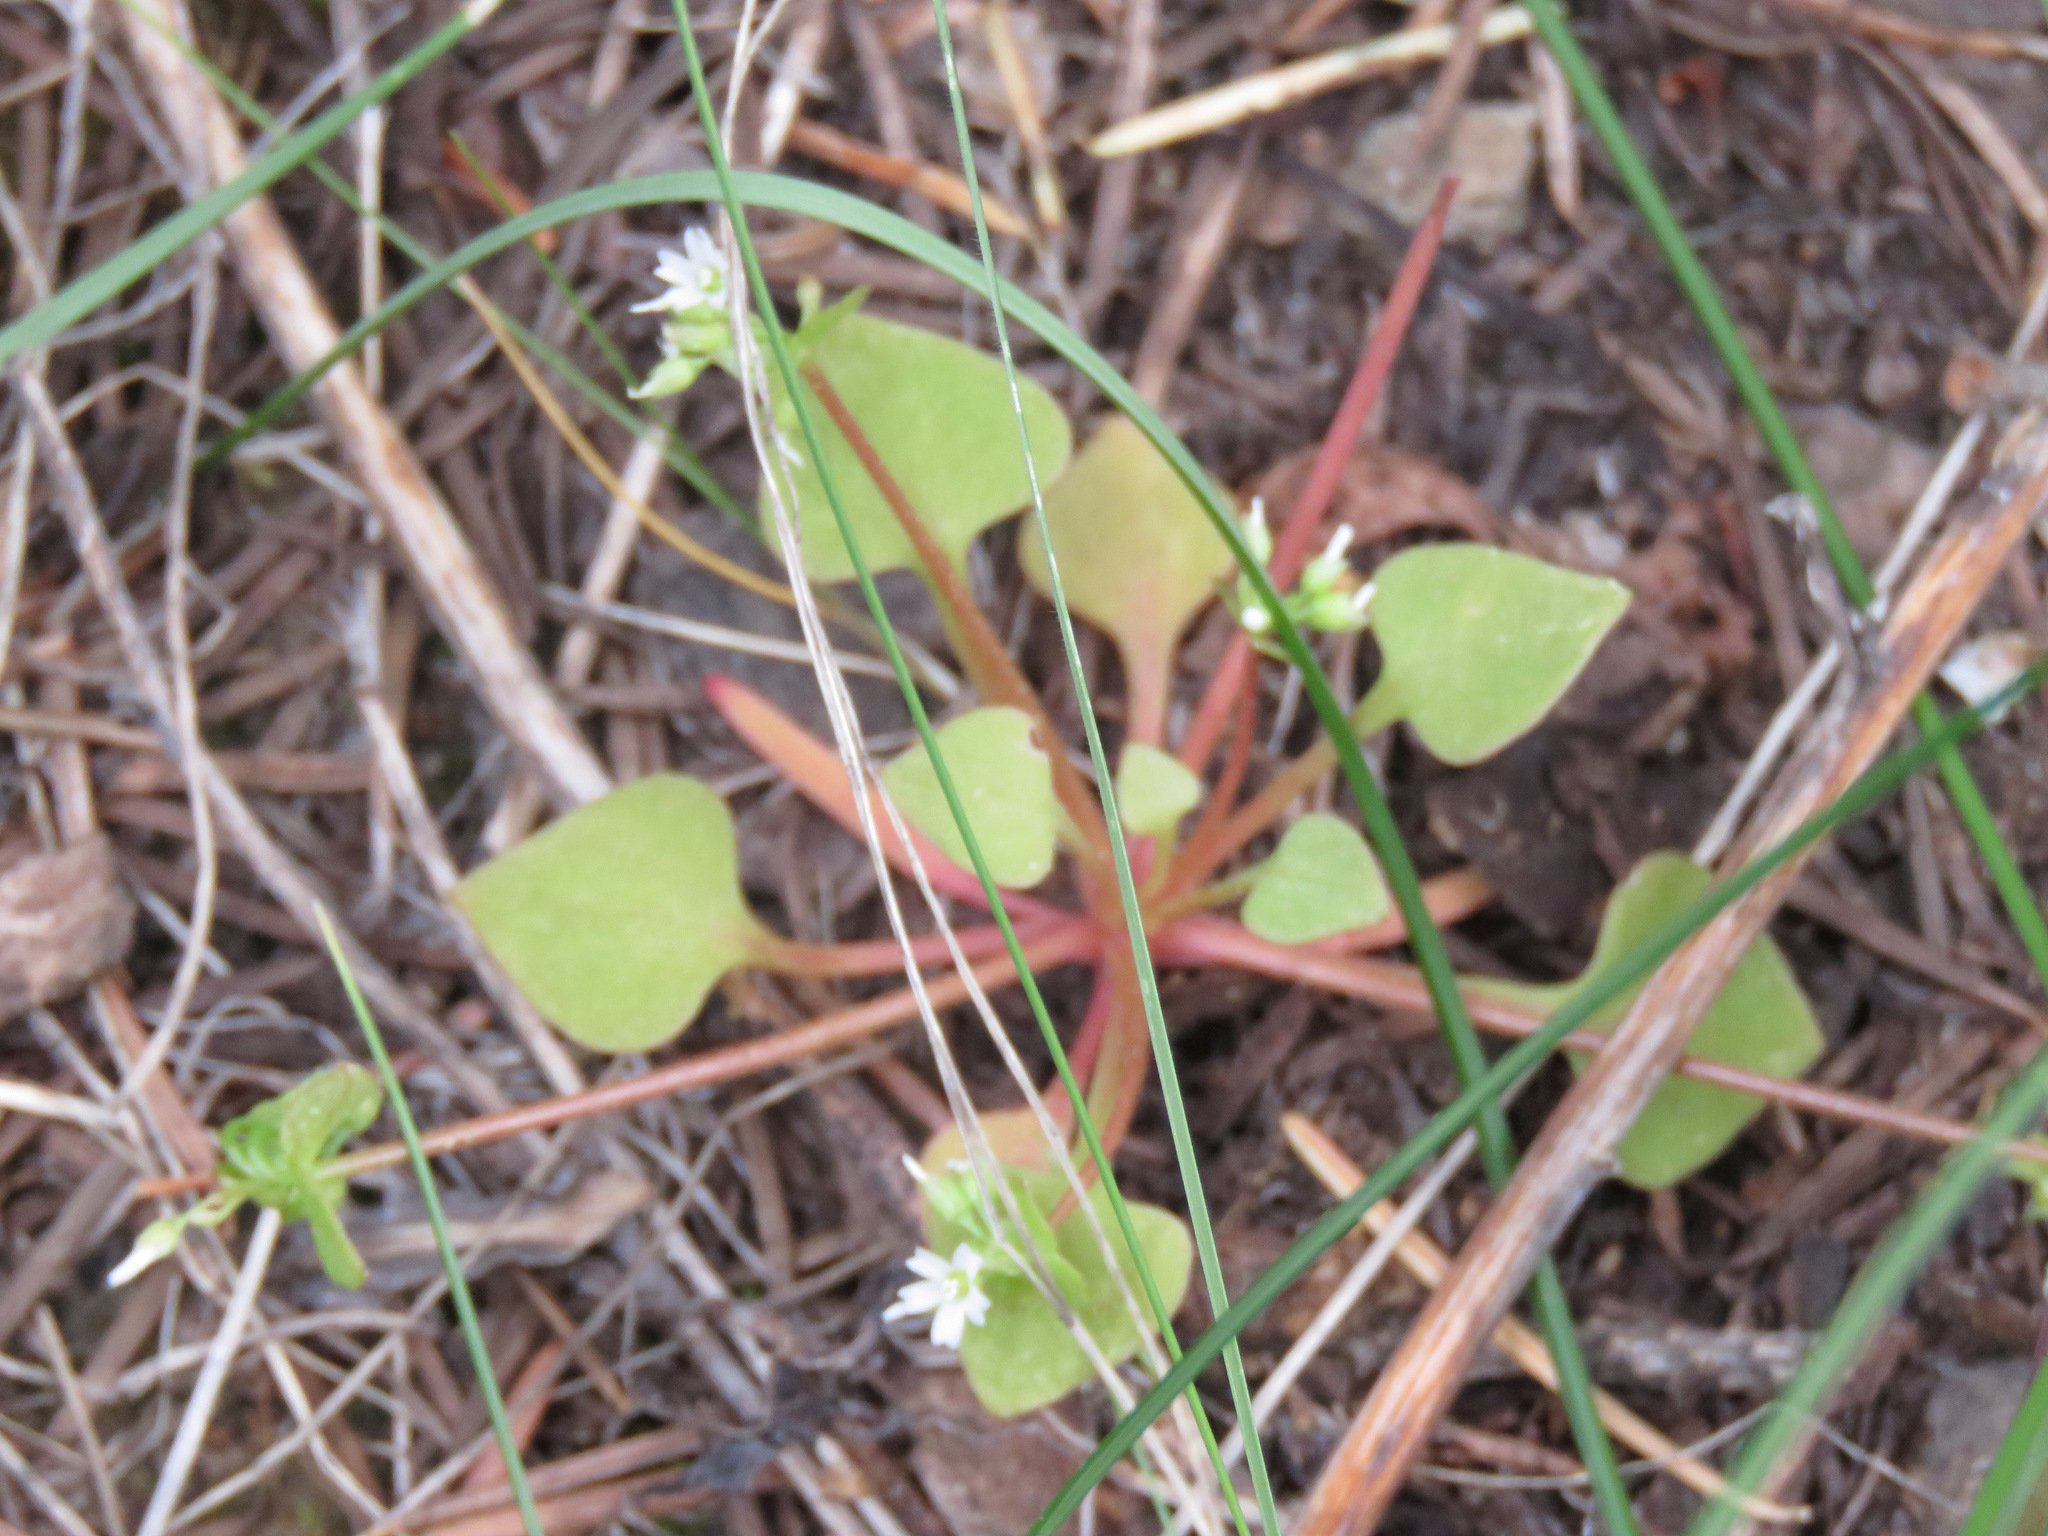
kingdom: Plantae
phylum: Tracheophyta
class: Magnoliopsida
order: Caryophyllales
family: Montiaceae
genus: Claytonia
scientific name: Claytonia rubra
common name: Erubescent miner's-lettuce
